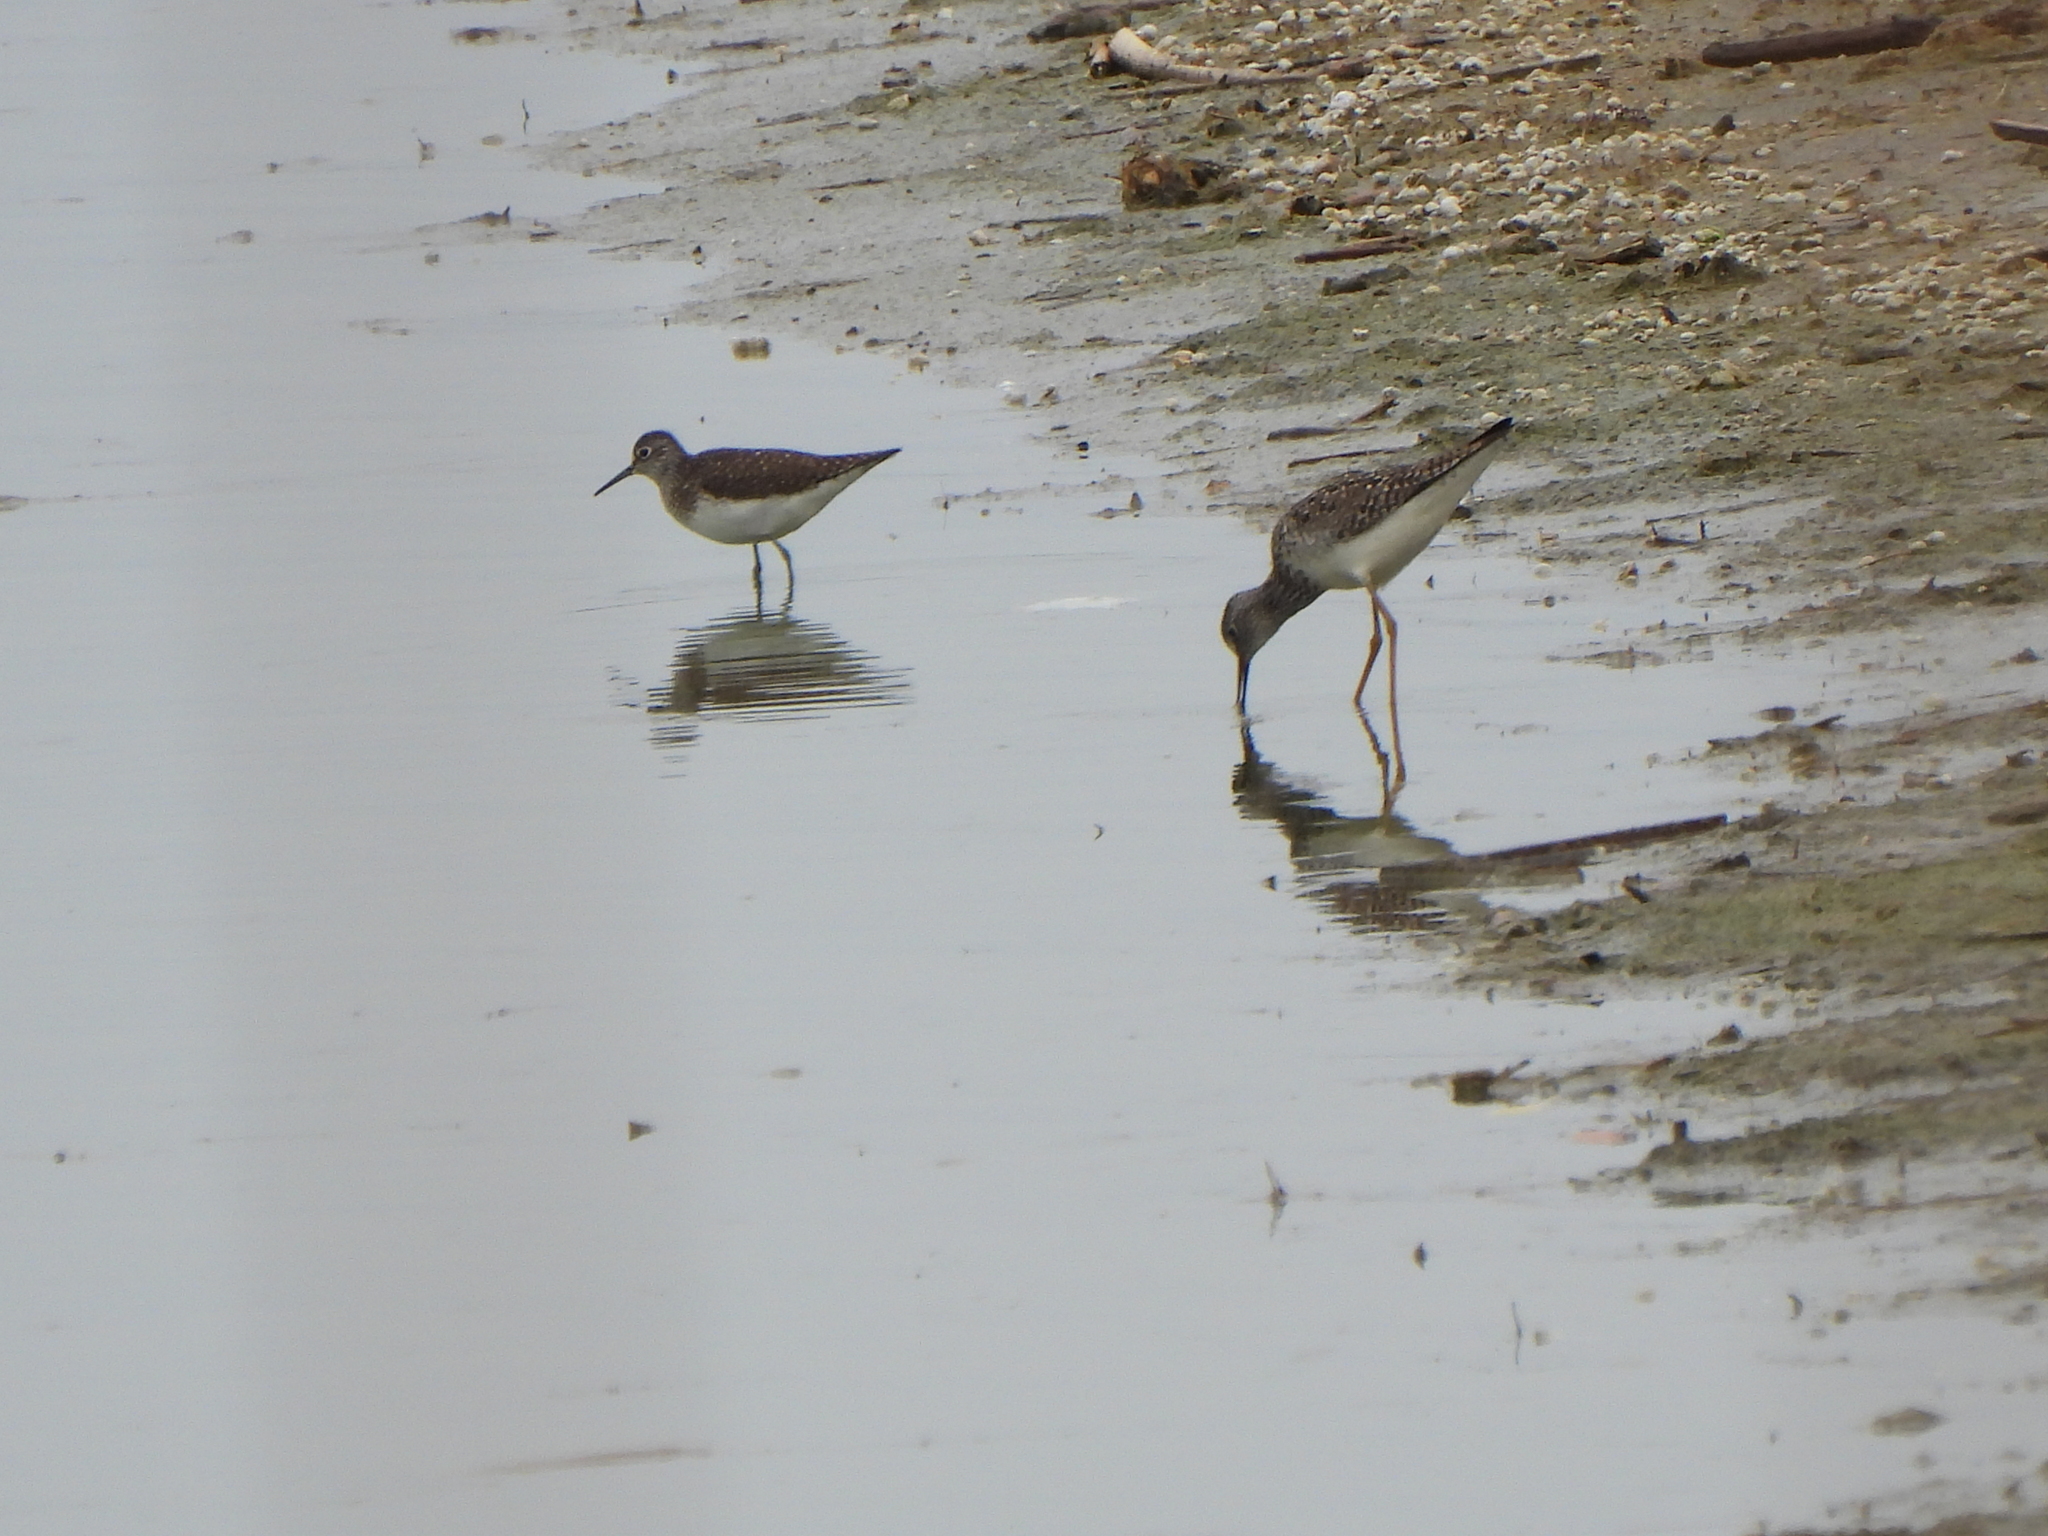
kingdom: Animalia
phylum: Chordata
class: Aves
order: Charadriiformes
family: Scolopacidae
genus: Tringa
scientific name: Tringa solitaria
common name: Solitary sandpiper
